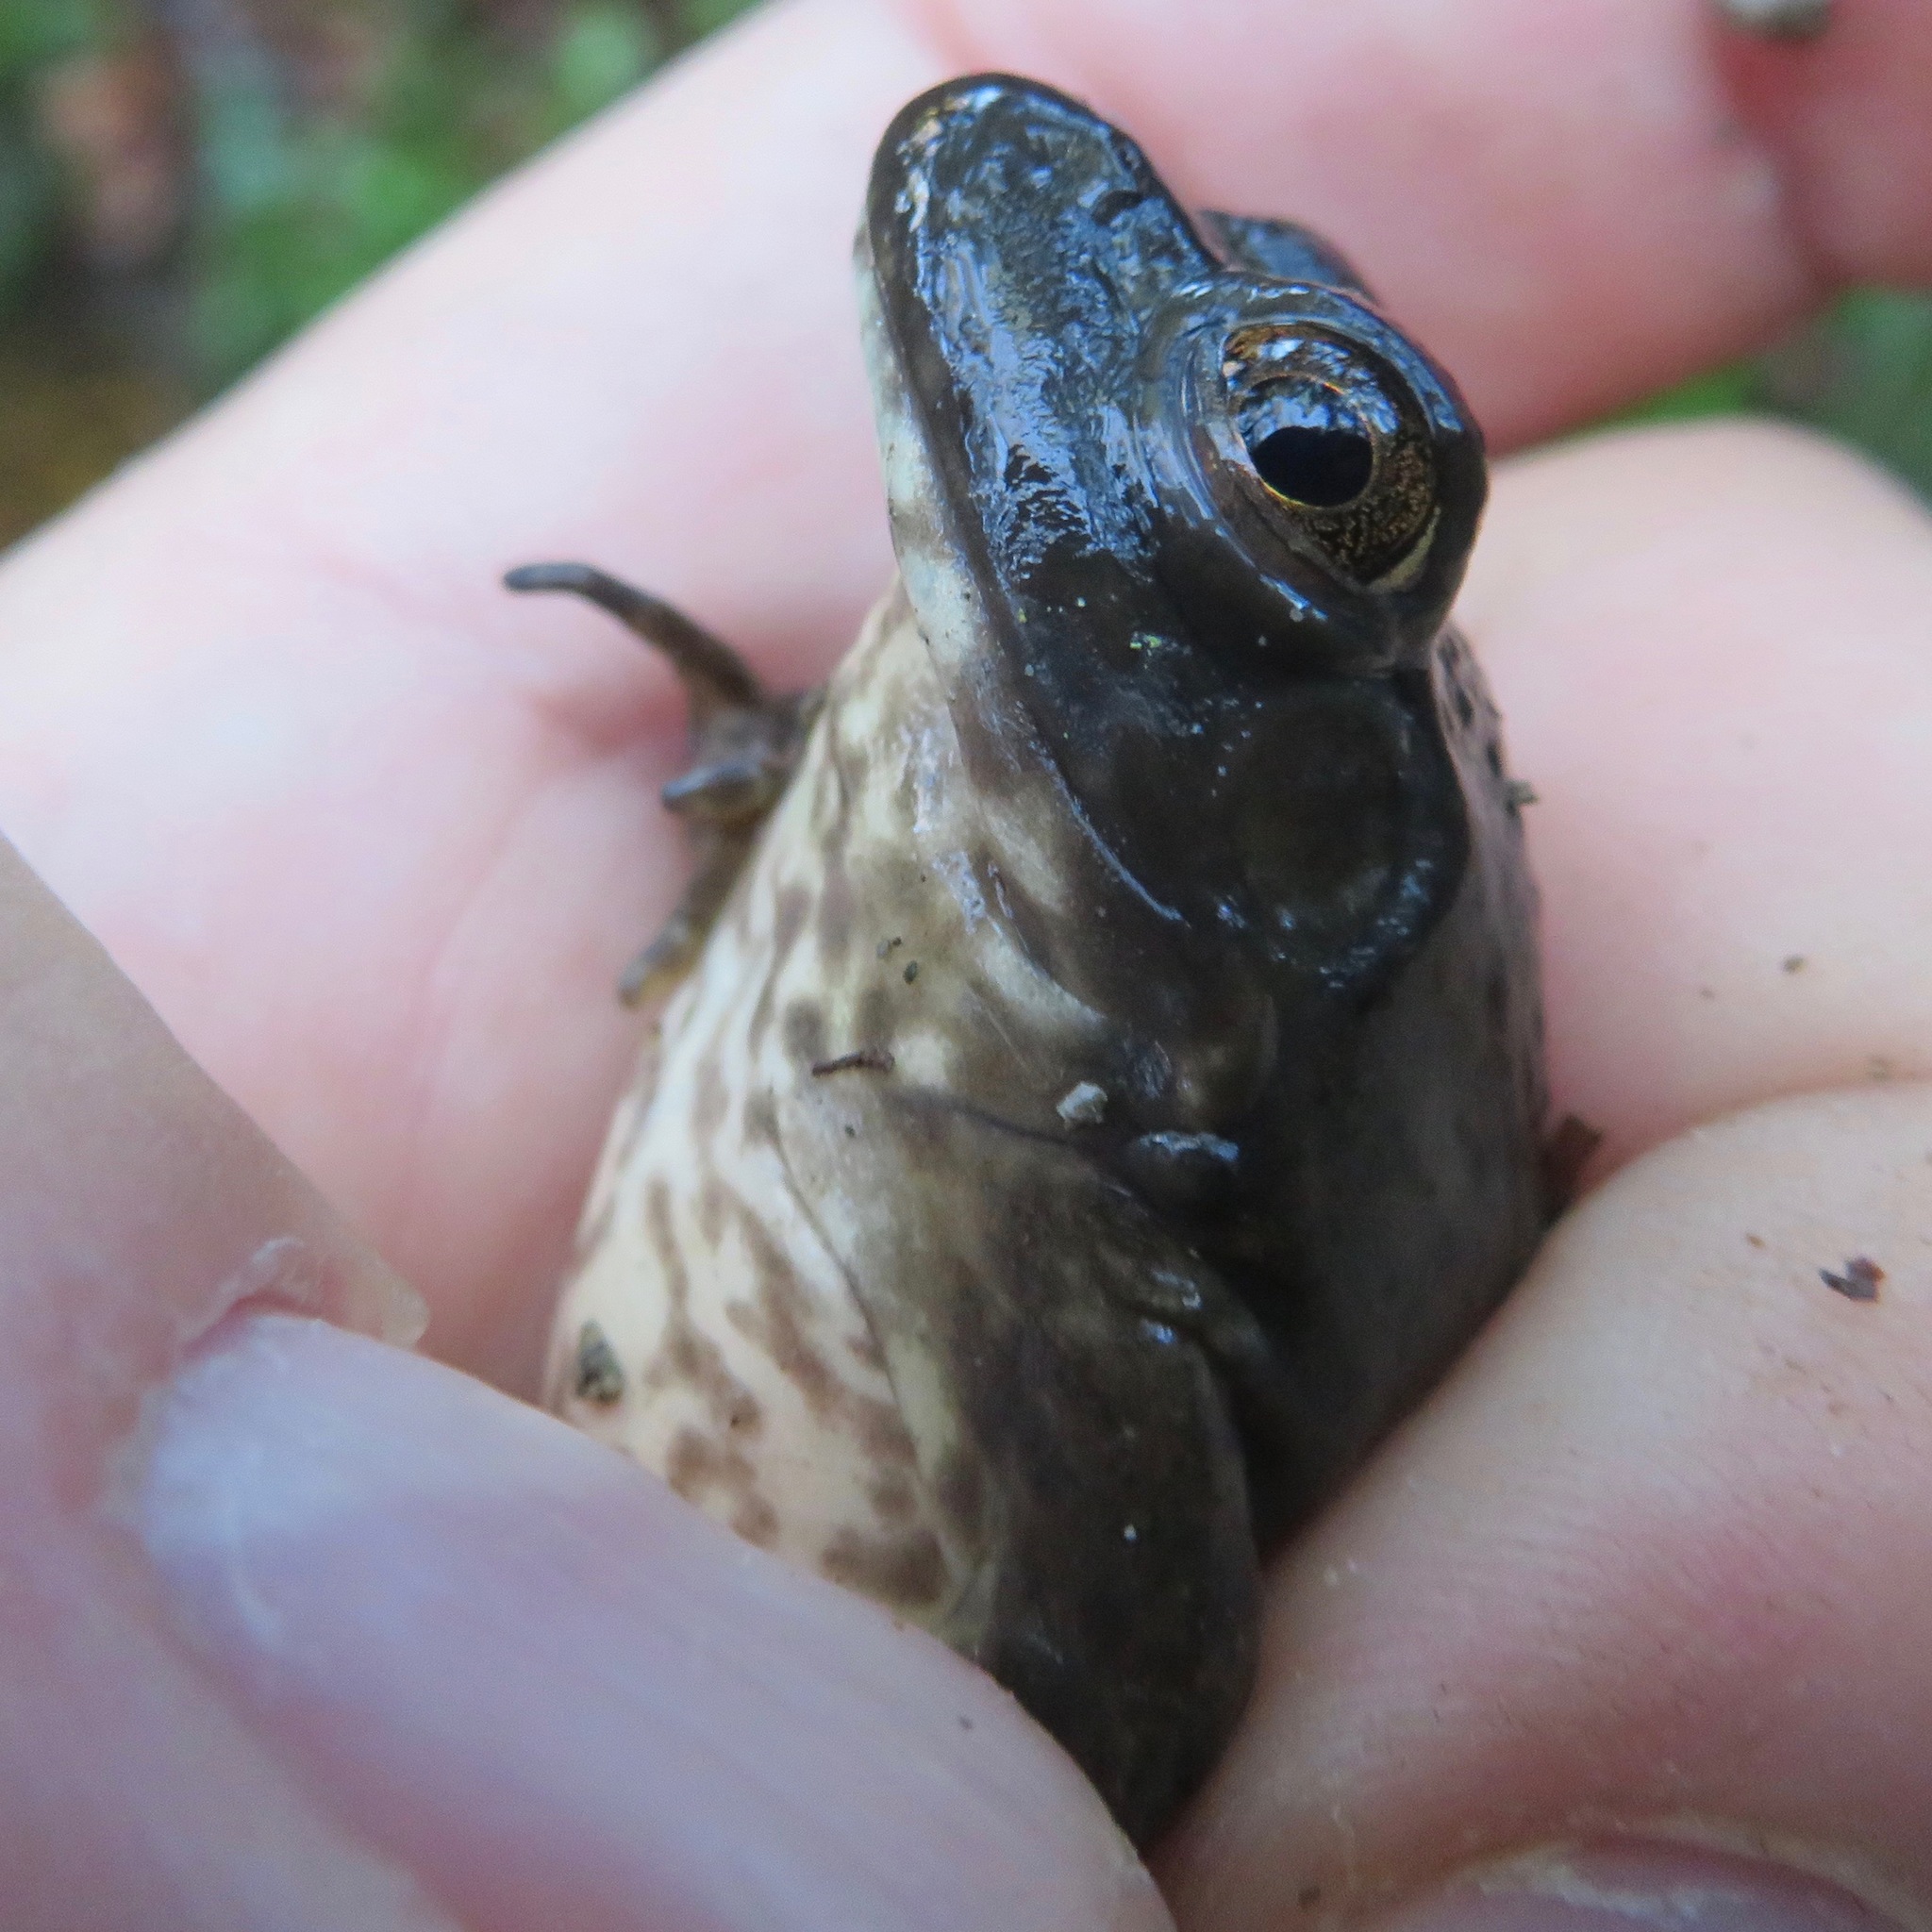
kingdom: Animalia
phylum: Chordata
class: Amphibia
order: Anura
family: Ranidae
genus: Lithobates
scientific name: Lithobates catesbeianus
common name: American bullfrog
